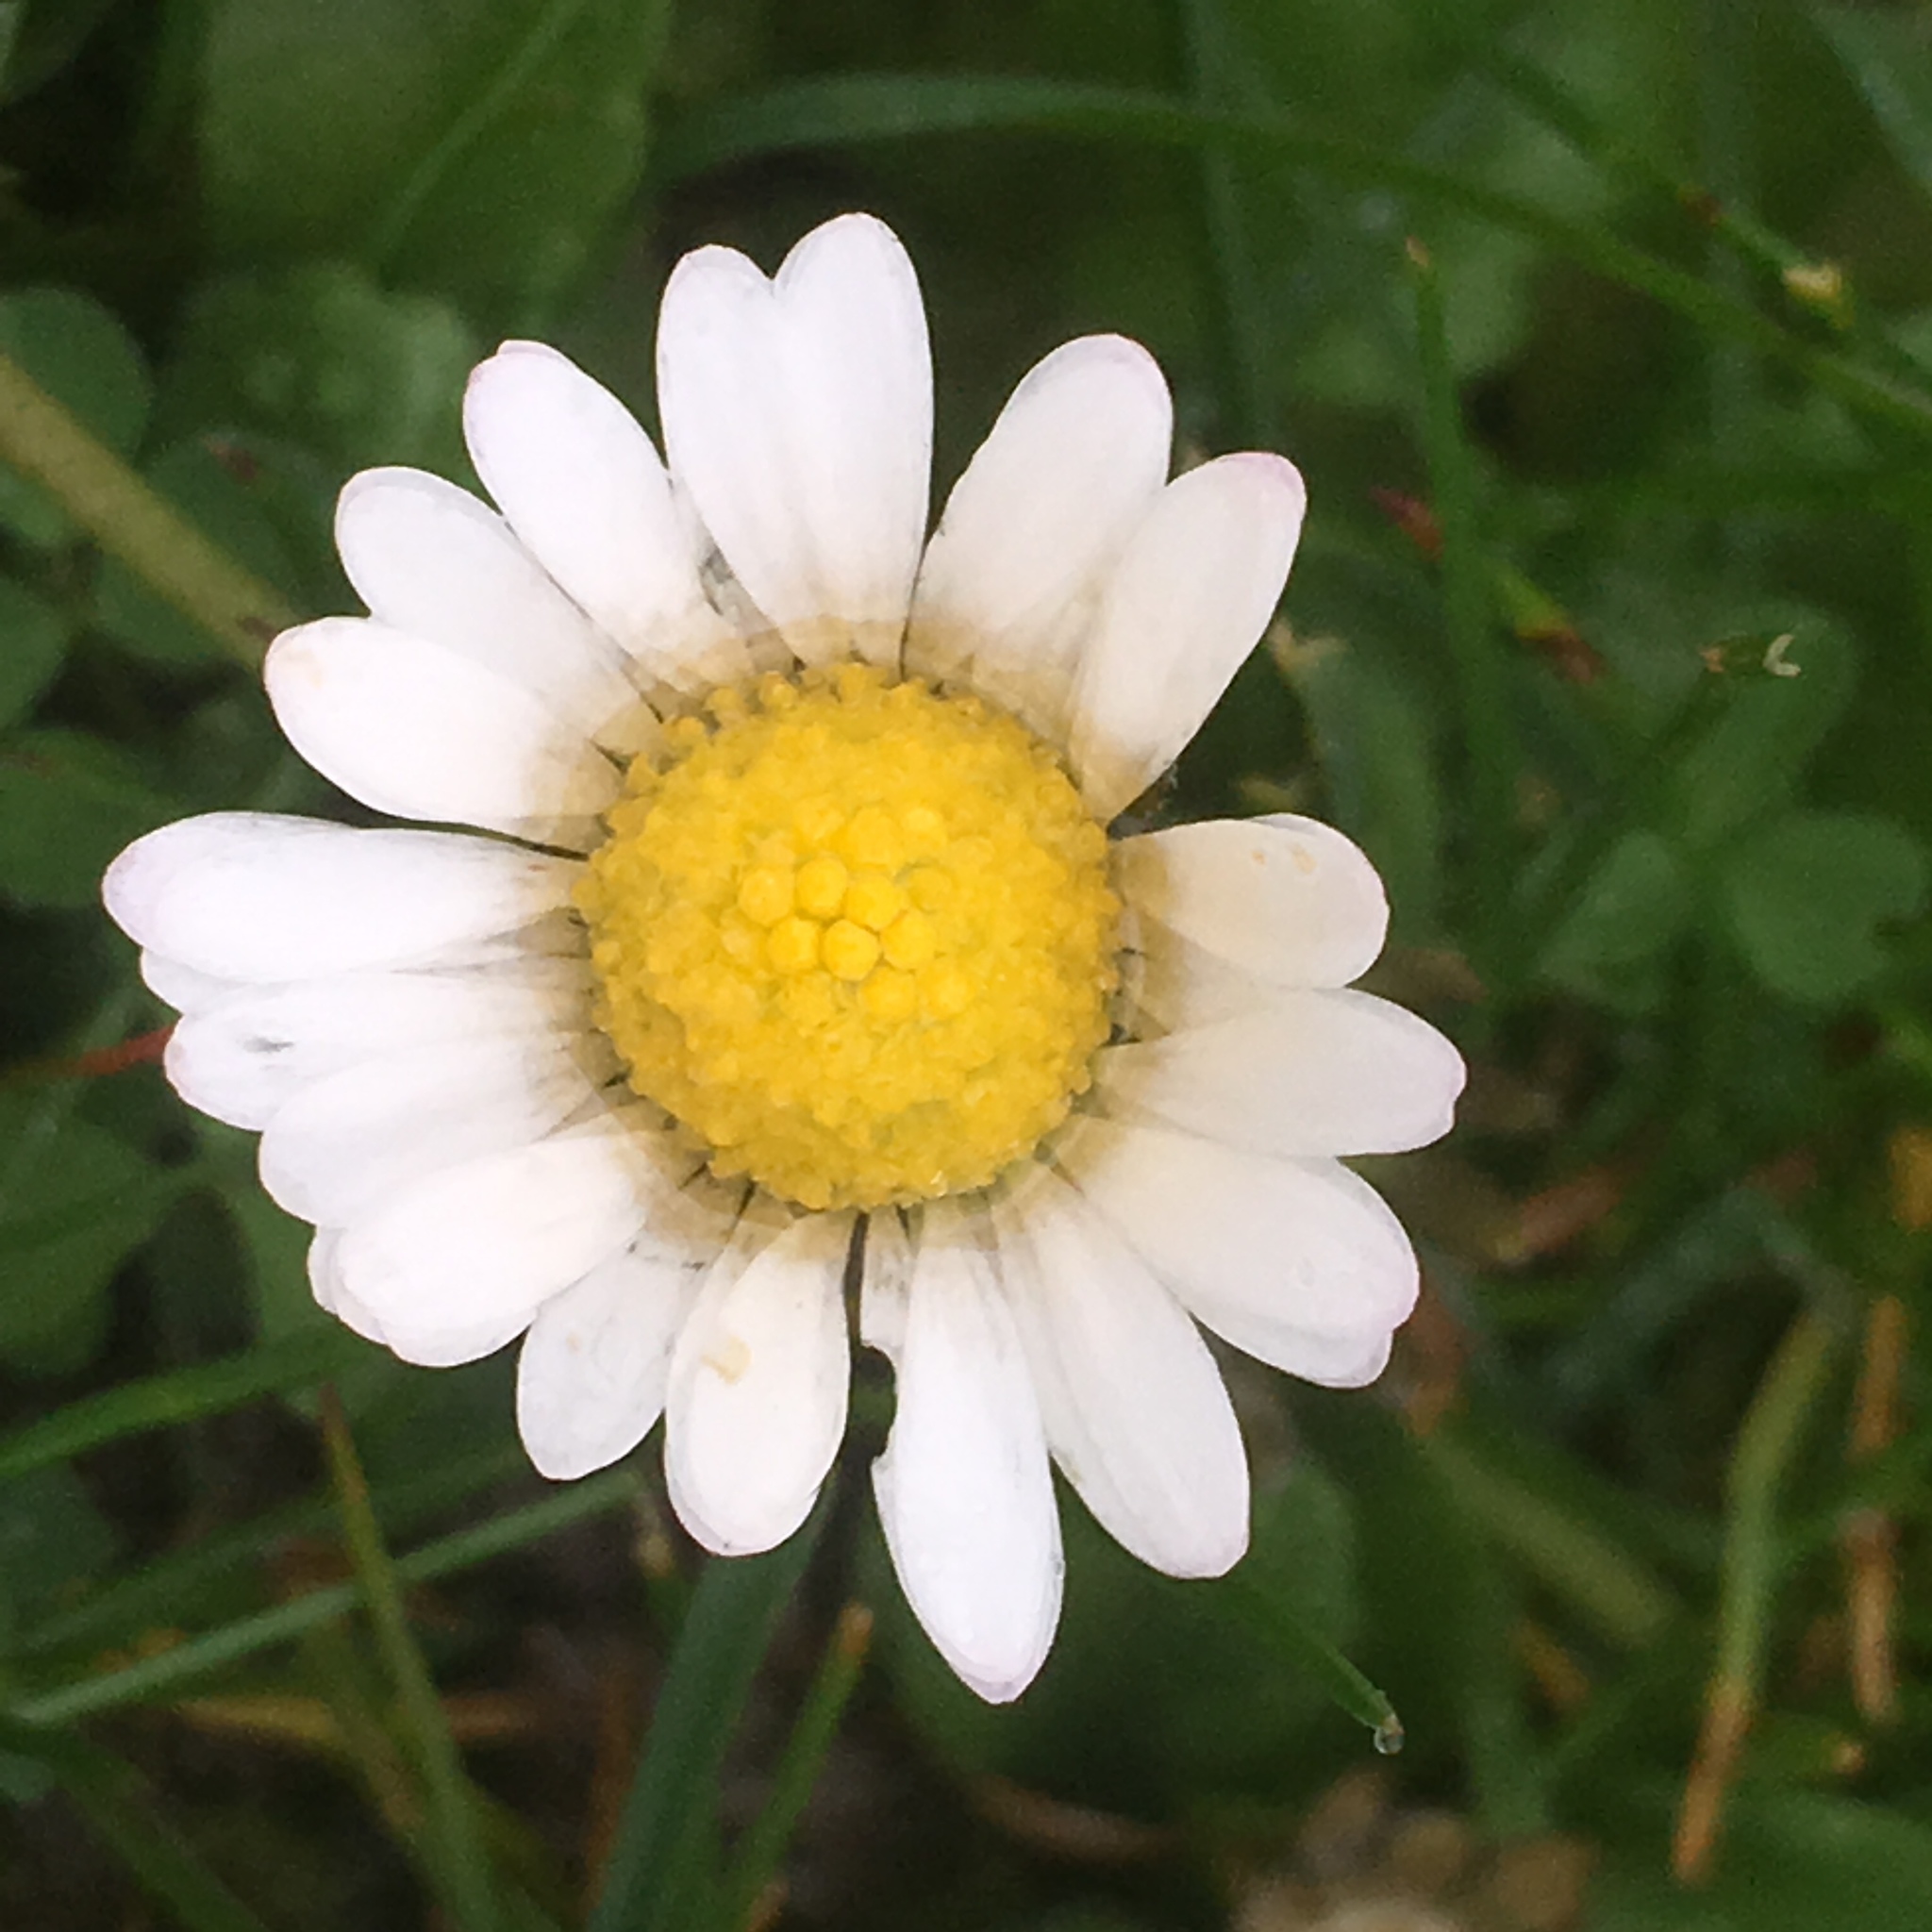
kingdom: Plantae
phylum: Tracheophyta
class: Magnoliopsida
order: Asterales
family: Asteraceae
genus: Bellis
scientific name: Bellis perennis
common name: Lawndaisy
